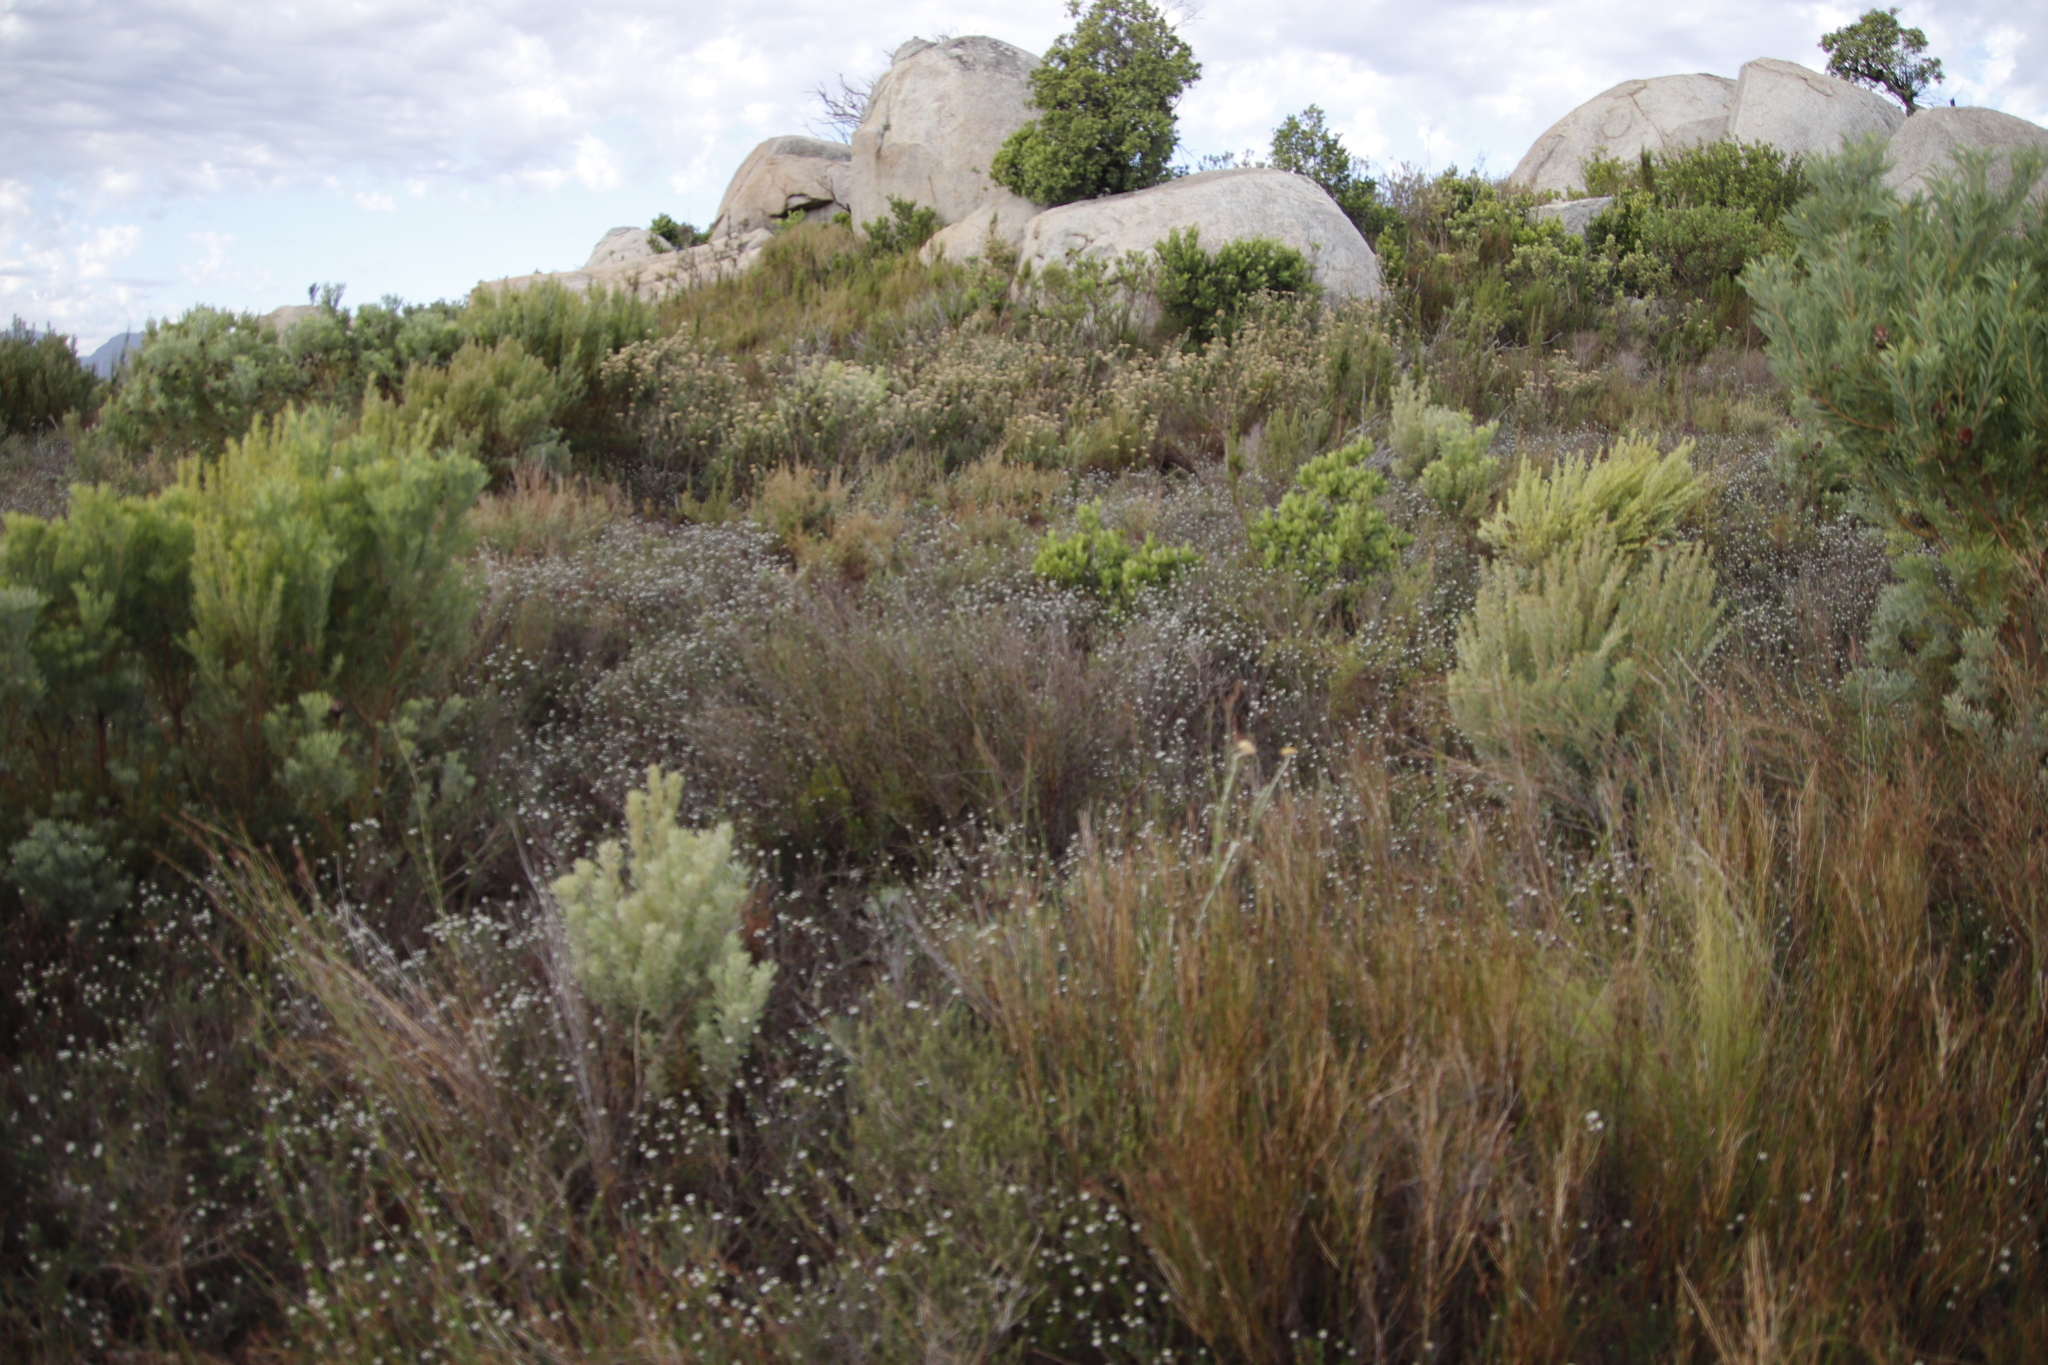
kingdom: Plantae
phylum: Tracheophyta
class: Magnoliopsida
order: Rosales
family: Rhamnaceae
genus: Phylica
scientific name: Phylica callosa
